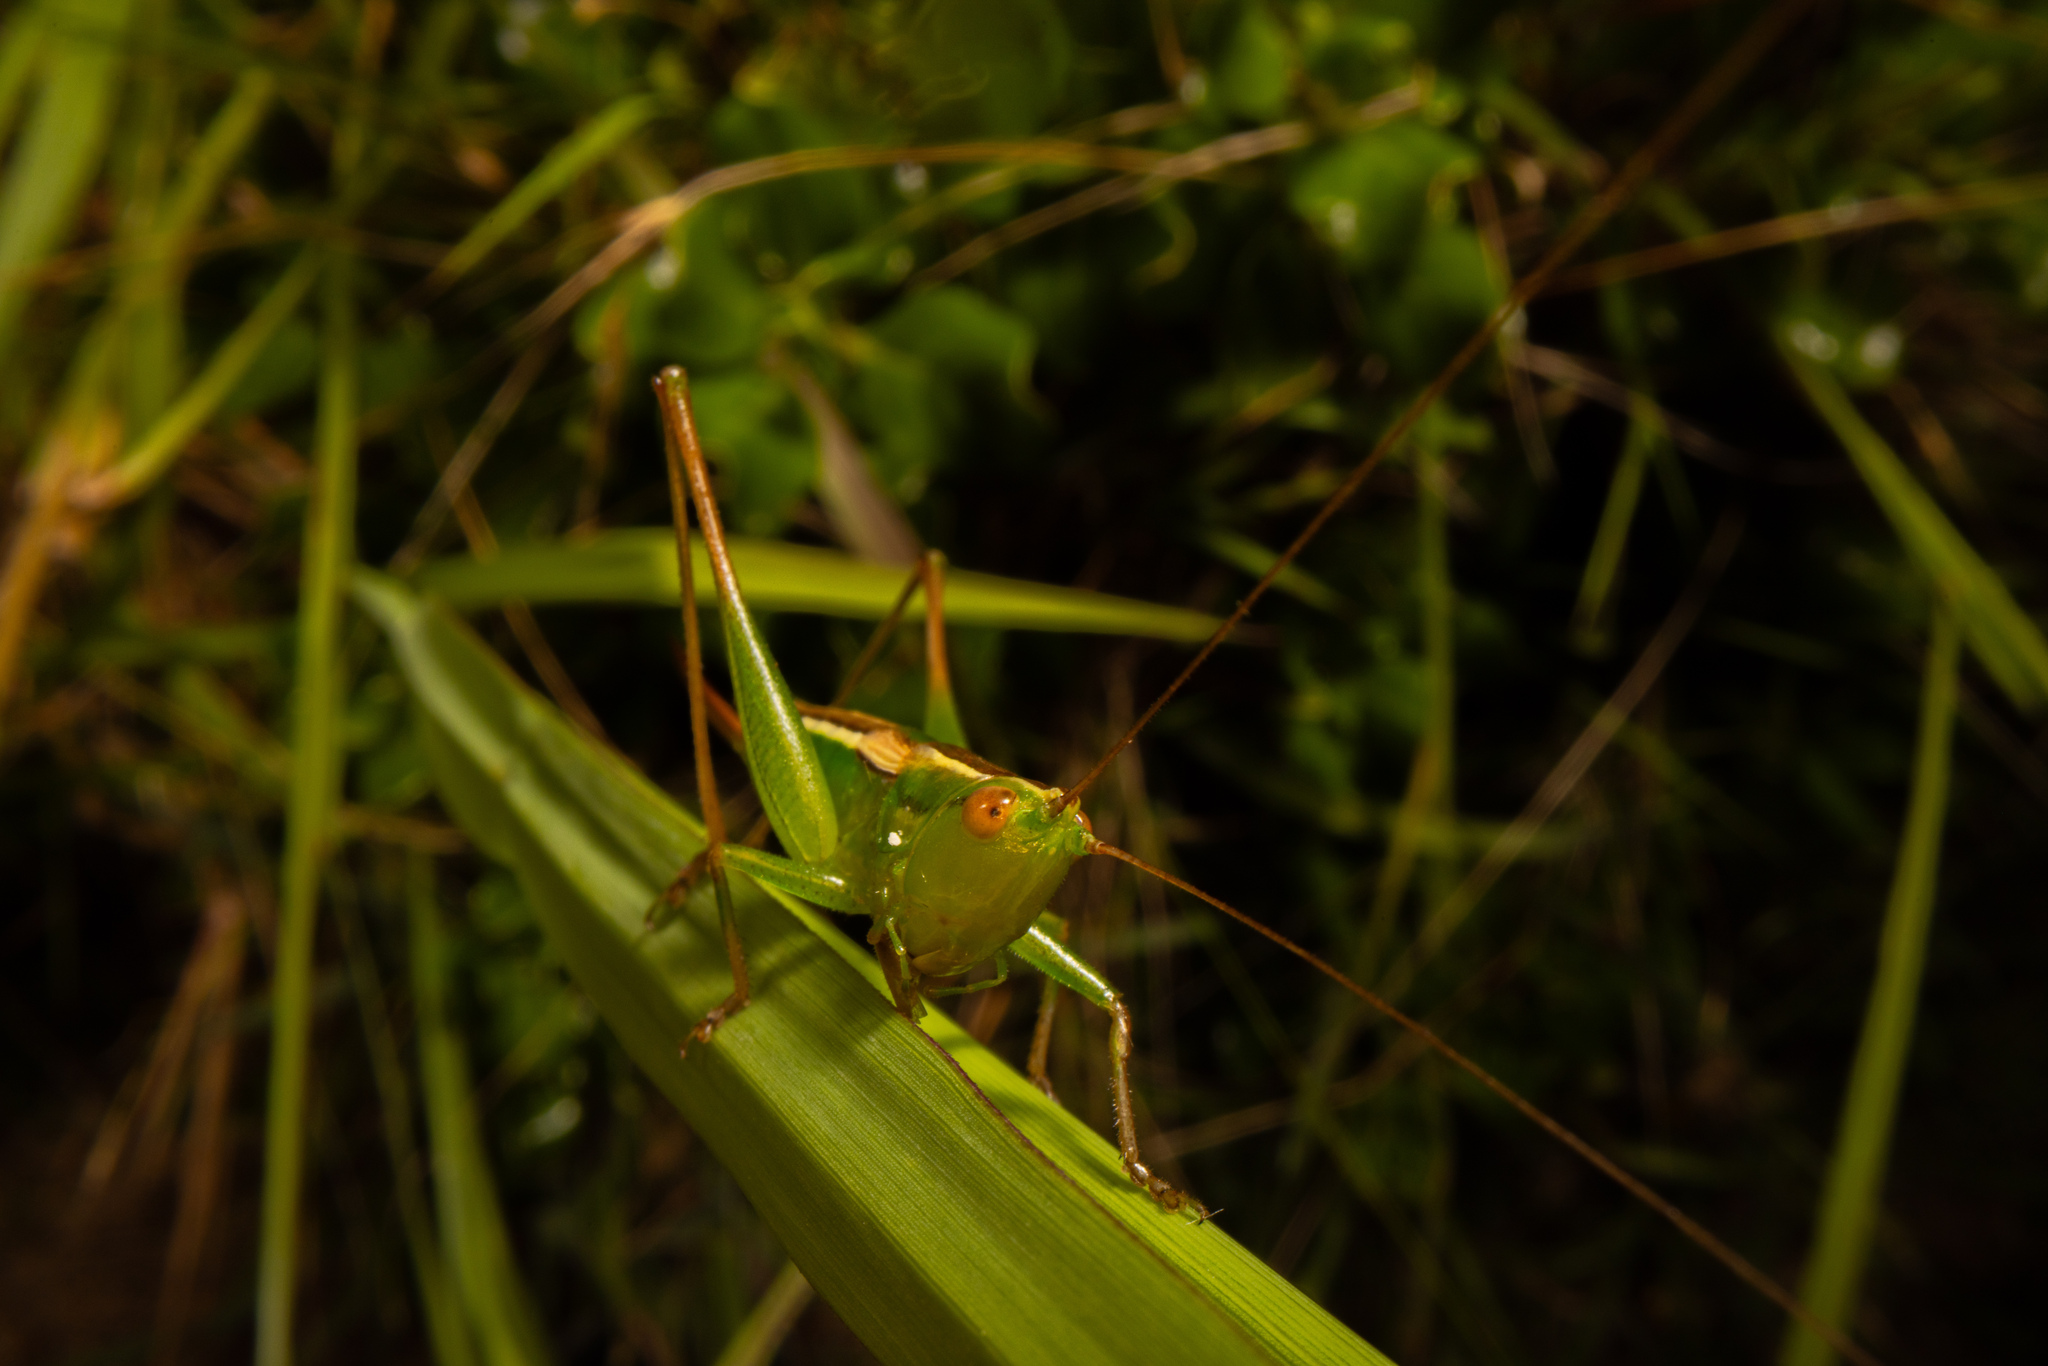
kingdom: Animalia
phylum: Arthropoda
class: Insecta
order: Orthoptera
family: Tettigoniidae
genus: Conocephalus
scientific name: Conocephalus bilineatus
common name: Small meadow katydid
